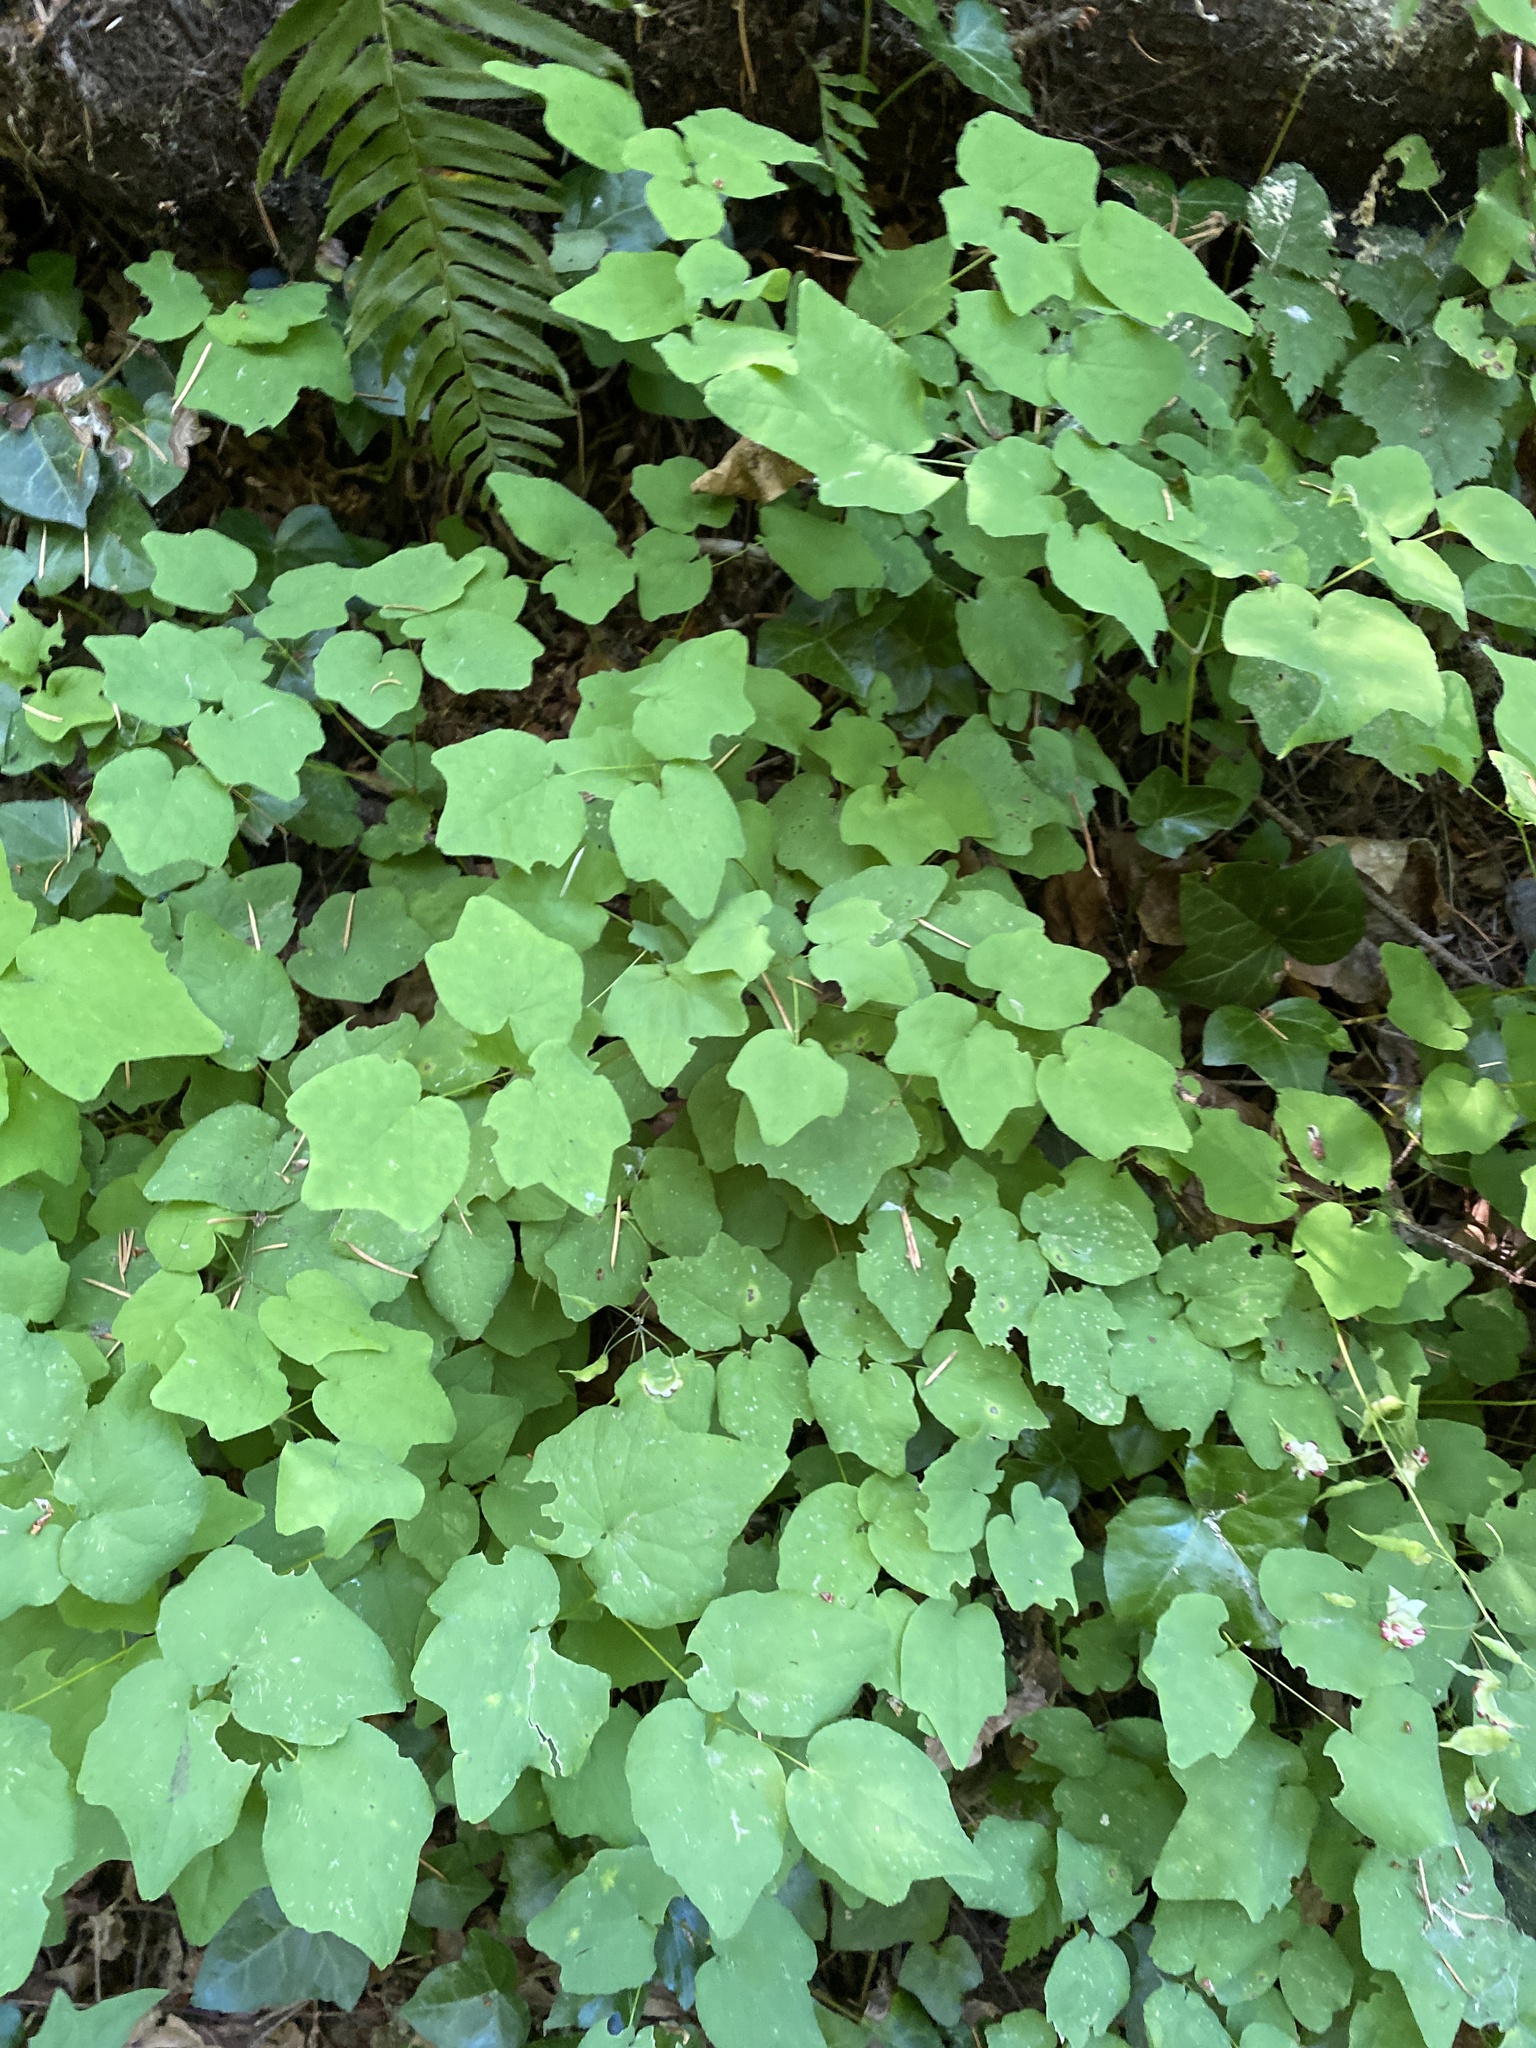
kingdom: Plantae
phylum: Tracheophyta
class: Magnoliopsida
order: Ranunculales
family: Berberidaceae
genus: Vancouveria
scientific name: Vancouveria hexandra
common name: Northern inside-out-flower
